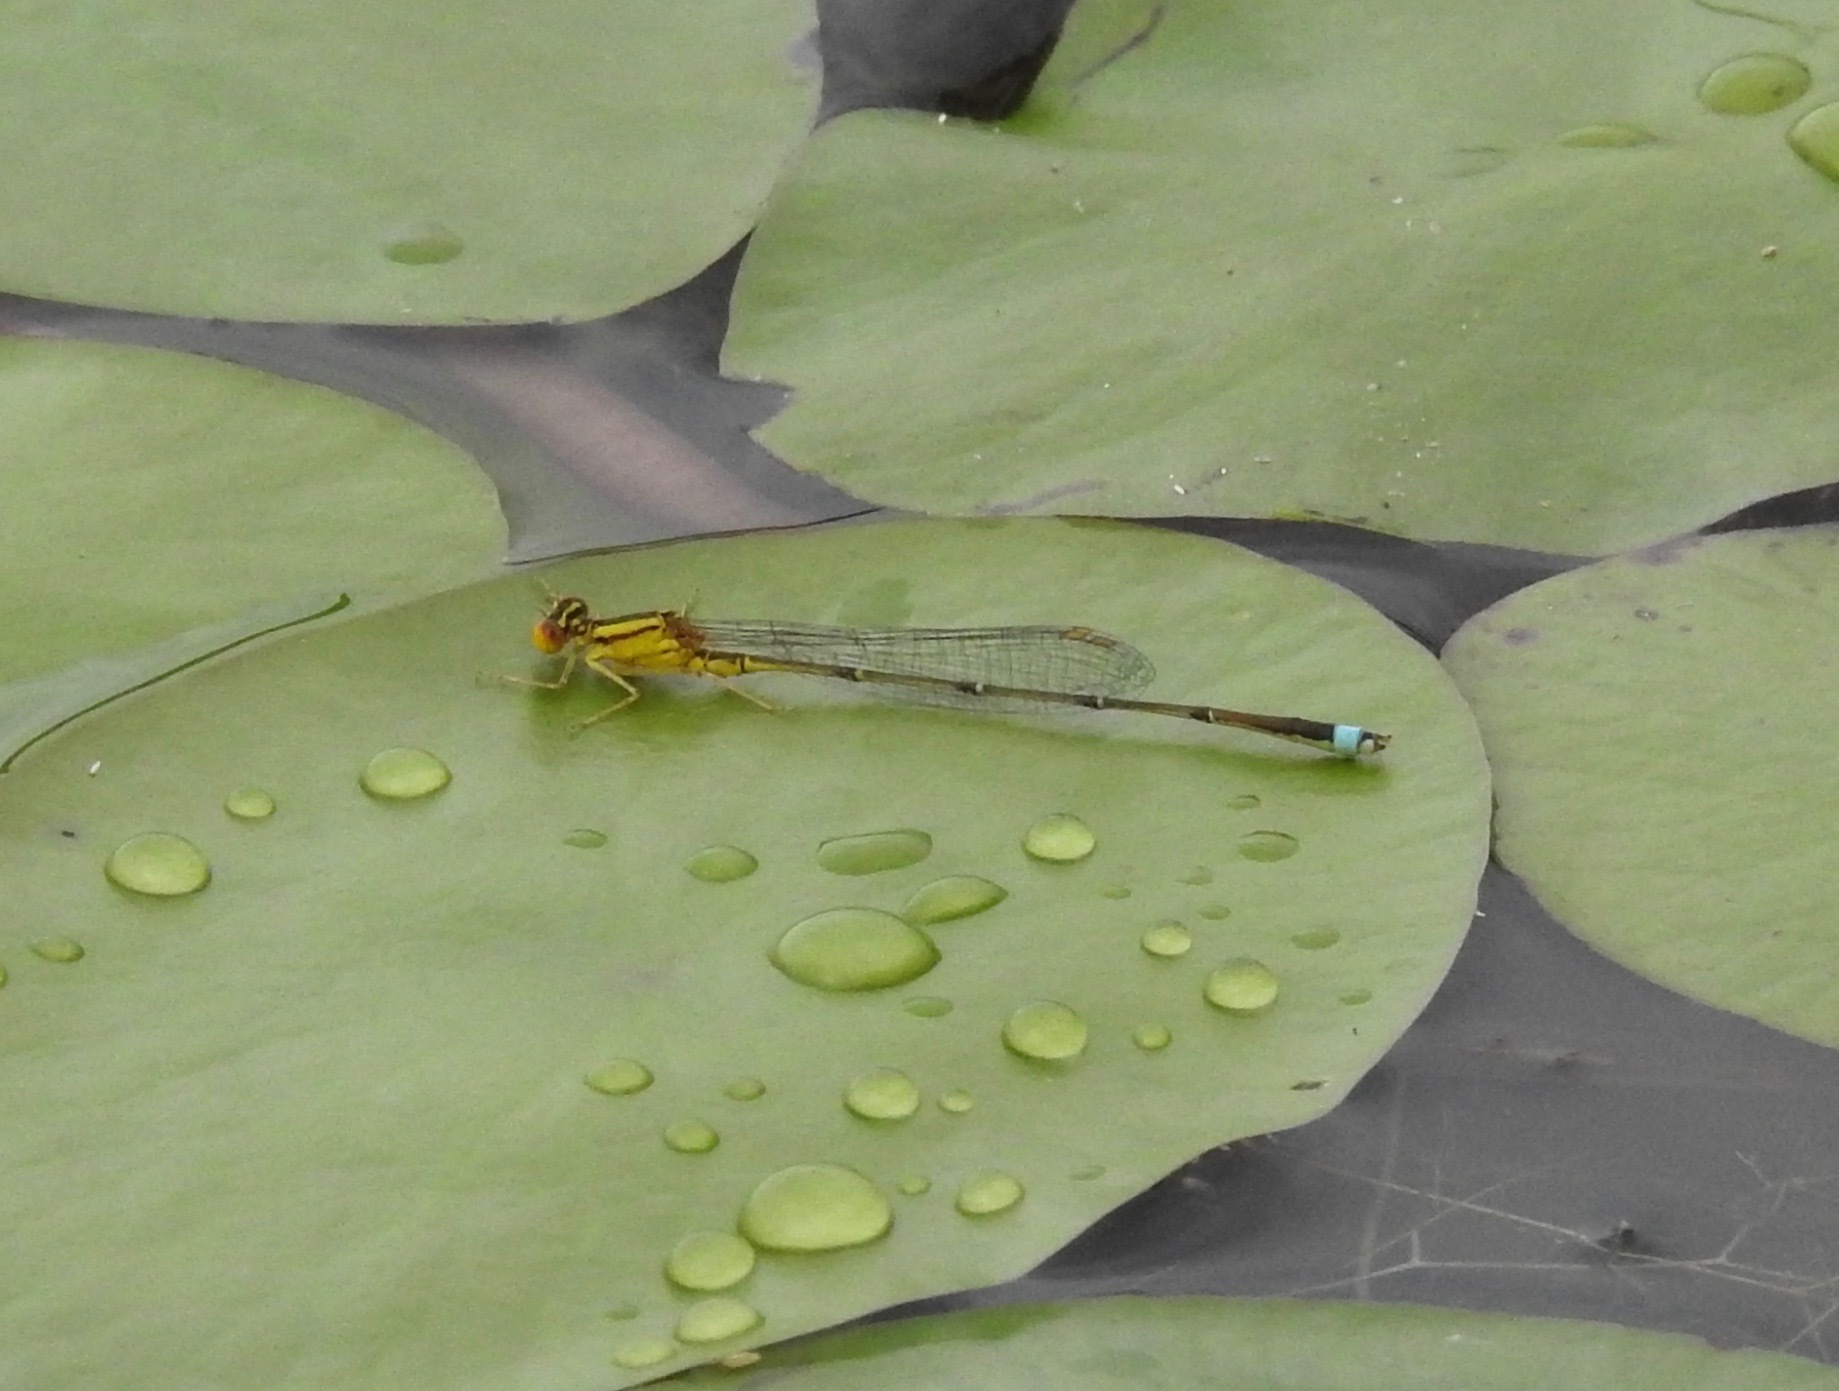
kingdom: Animalia
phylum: Arthropoda
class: Insecta
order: Odonata
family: Coenagrionidae
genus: Enallagma
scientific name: Enallagma vesperum
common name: Vesper bluet
